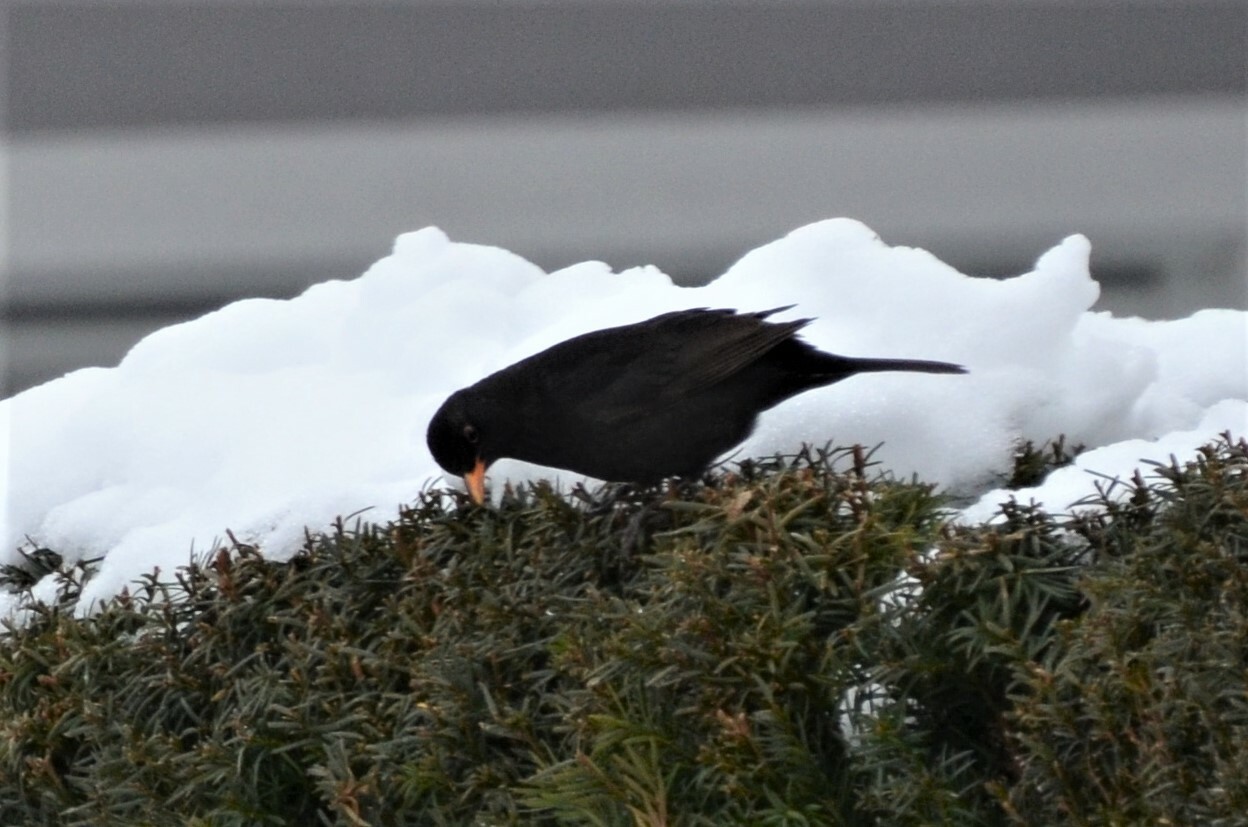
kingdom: Animalia
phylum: Chordata
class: Aves
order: Passeriformes
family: Turdidae
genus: Turdus
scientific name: Turdus merula
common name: Common blackbird
